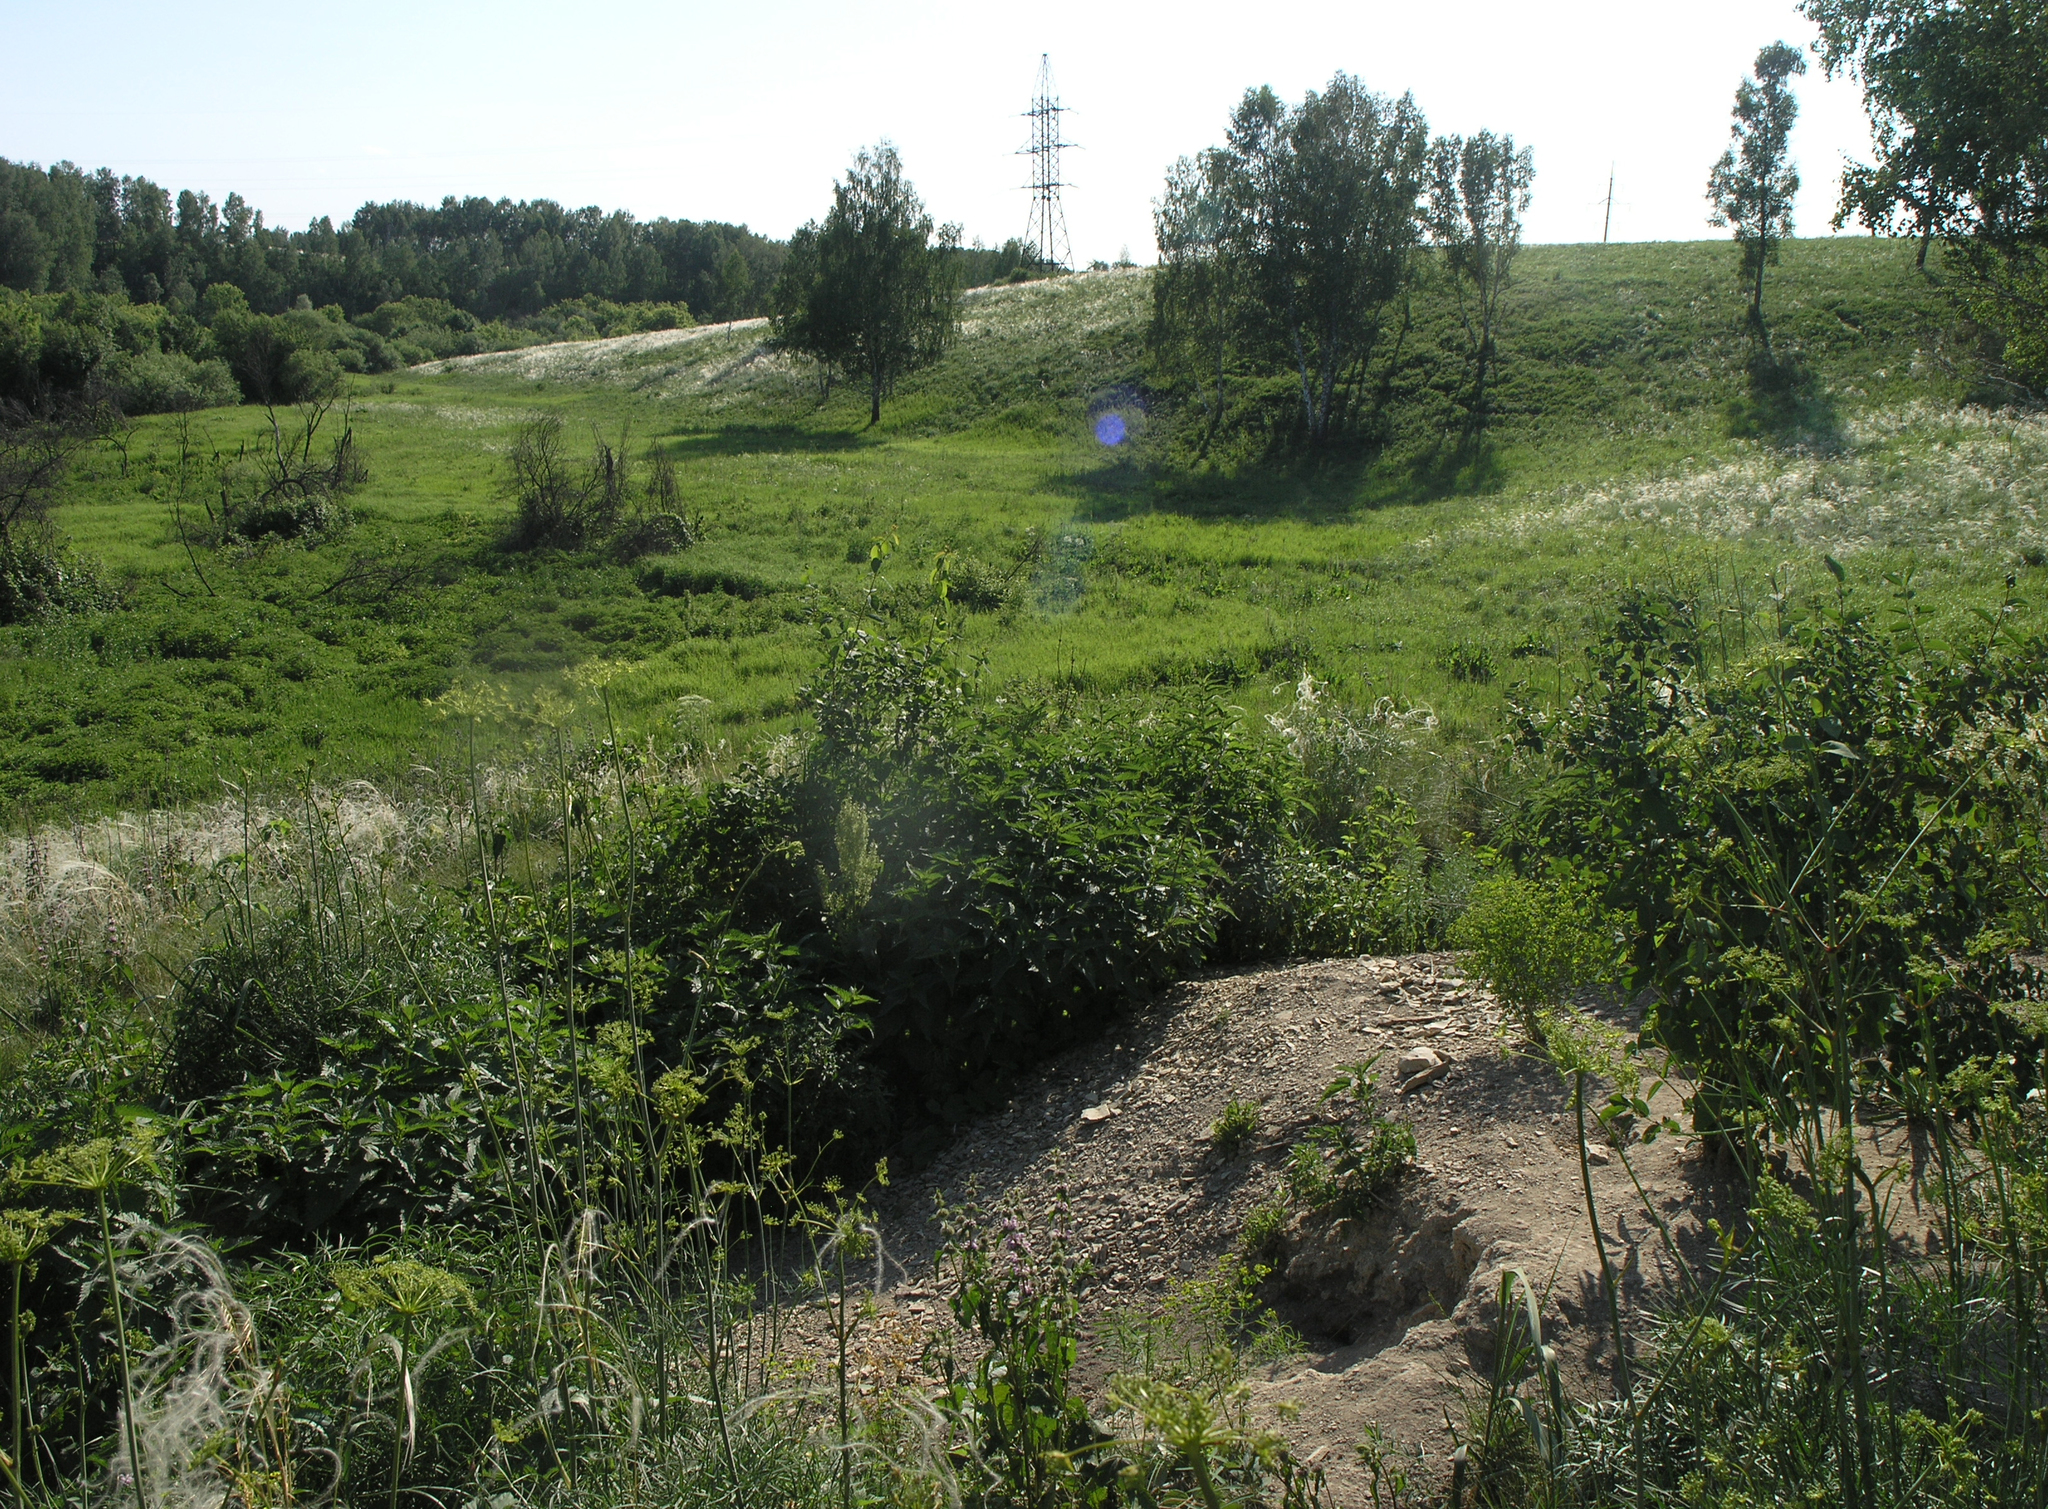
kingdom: Animalia
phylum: Chordata
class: Mammalia
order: Rodentia
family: Sciuridae
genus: Marmota
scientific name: Marmota kastschenkoi
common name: Forest steppe marmot
